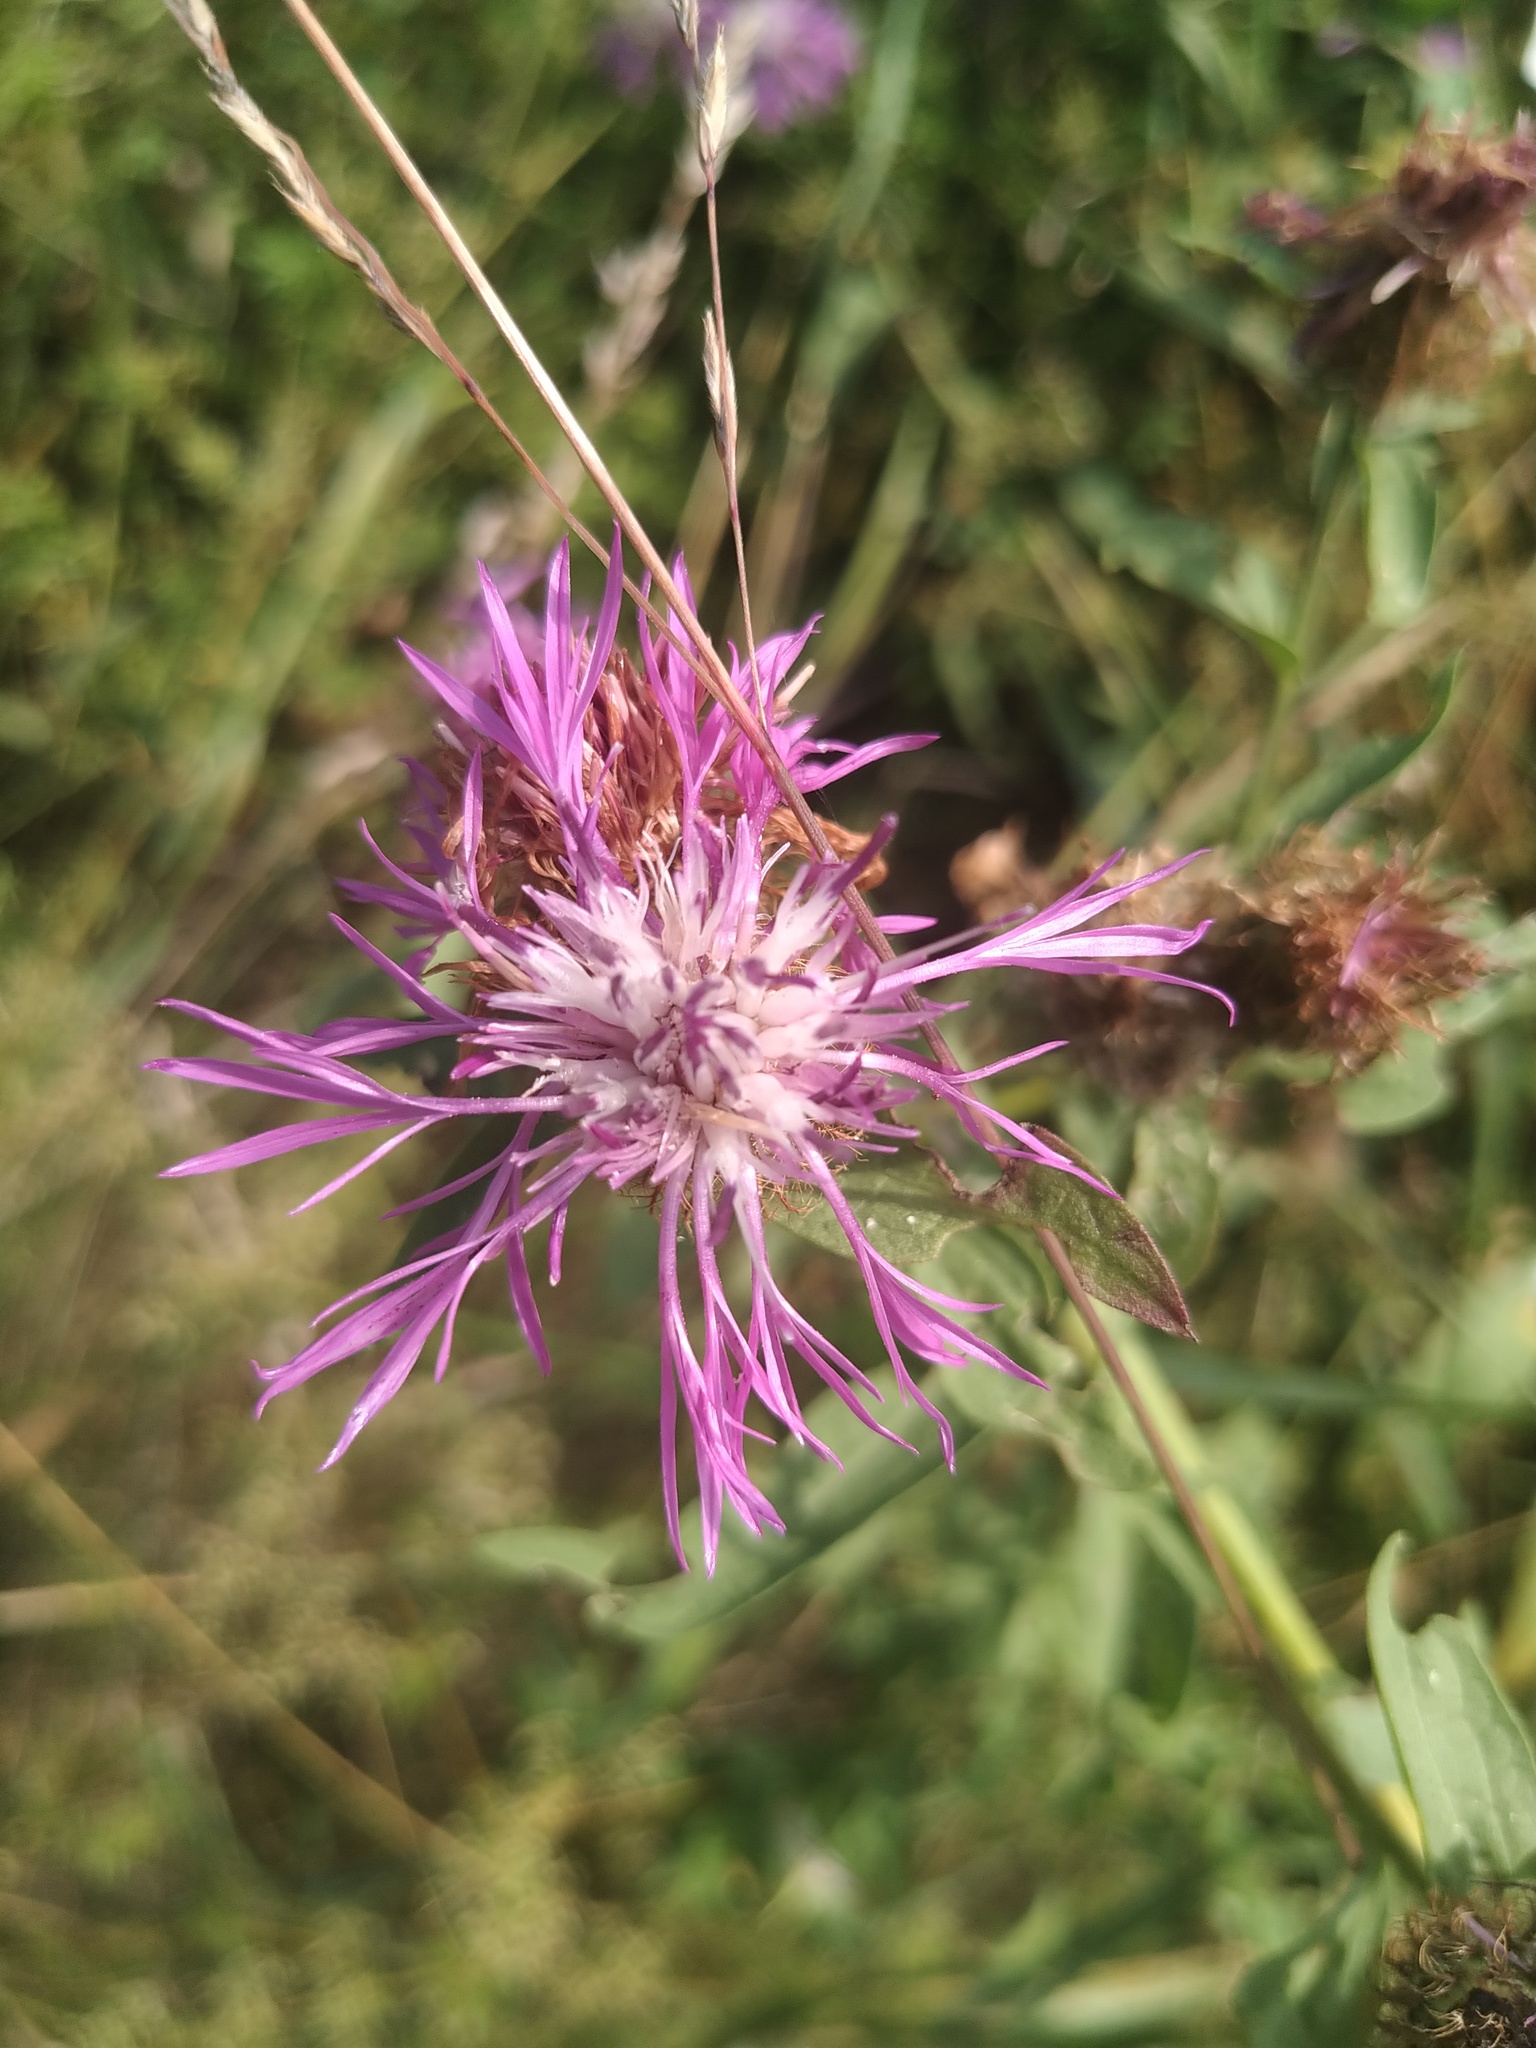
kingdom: Plantae
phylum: Tracheophyta
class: Magnoliopsida
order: Asterales
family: Asteraceae
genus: Centaurea
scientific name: Centaurea pseudophrygia
